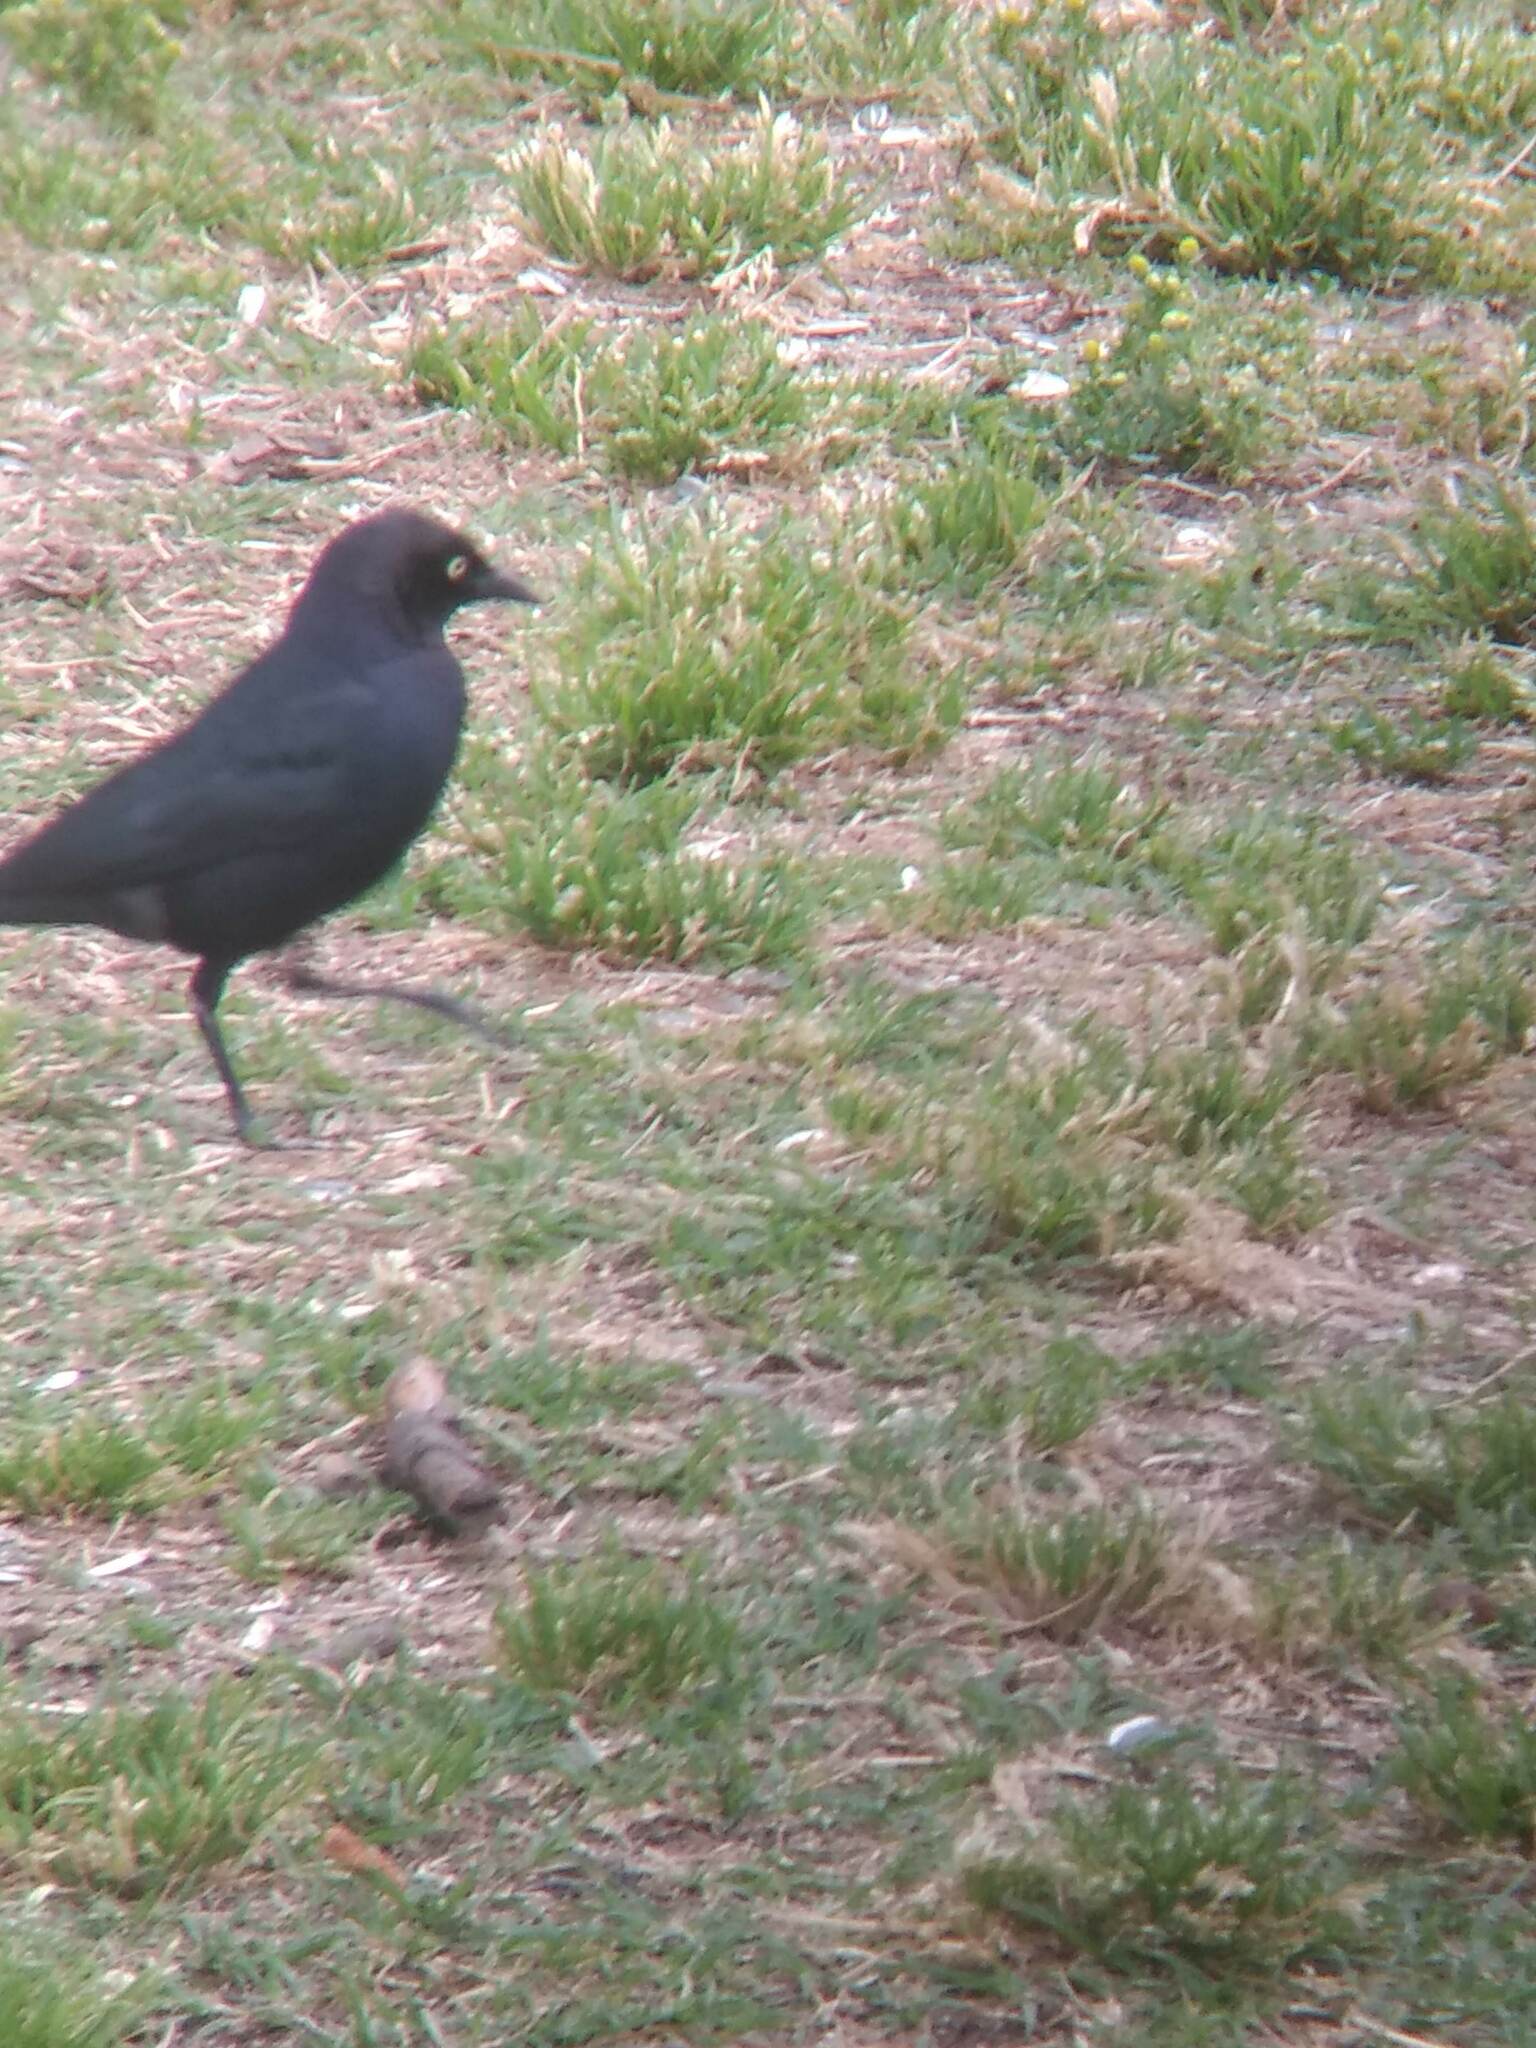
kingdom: Animalia
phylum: Chordata
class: Aves
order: Passeriformes
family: Icteridae
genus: Euphagus
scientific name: Euphagus cyanocephalus
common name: Brewer's blackbird
